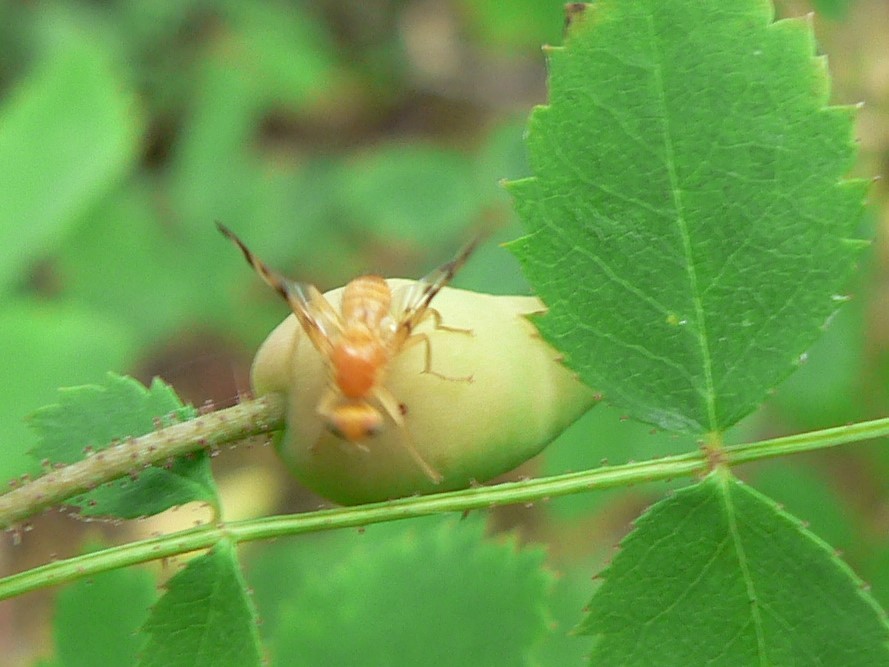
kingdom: Animalia
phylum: Arthropoda
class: Insecta
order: Diptera
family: Tephritidae
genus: Rhagoletis
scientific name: Rhagoletis basiola
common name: Rose hip fly
